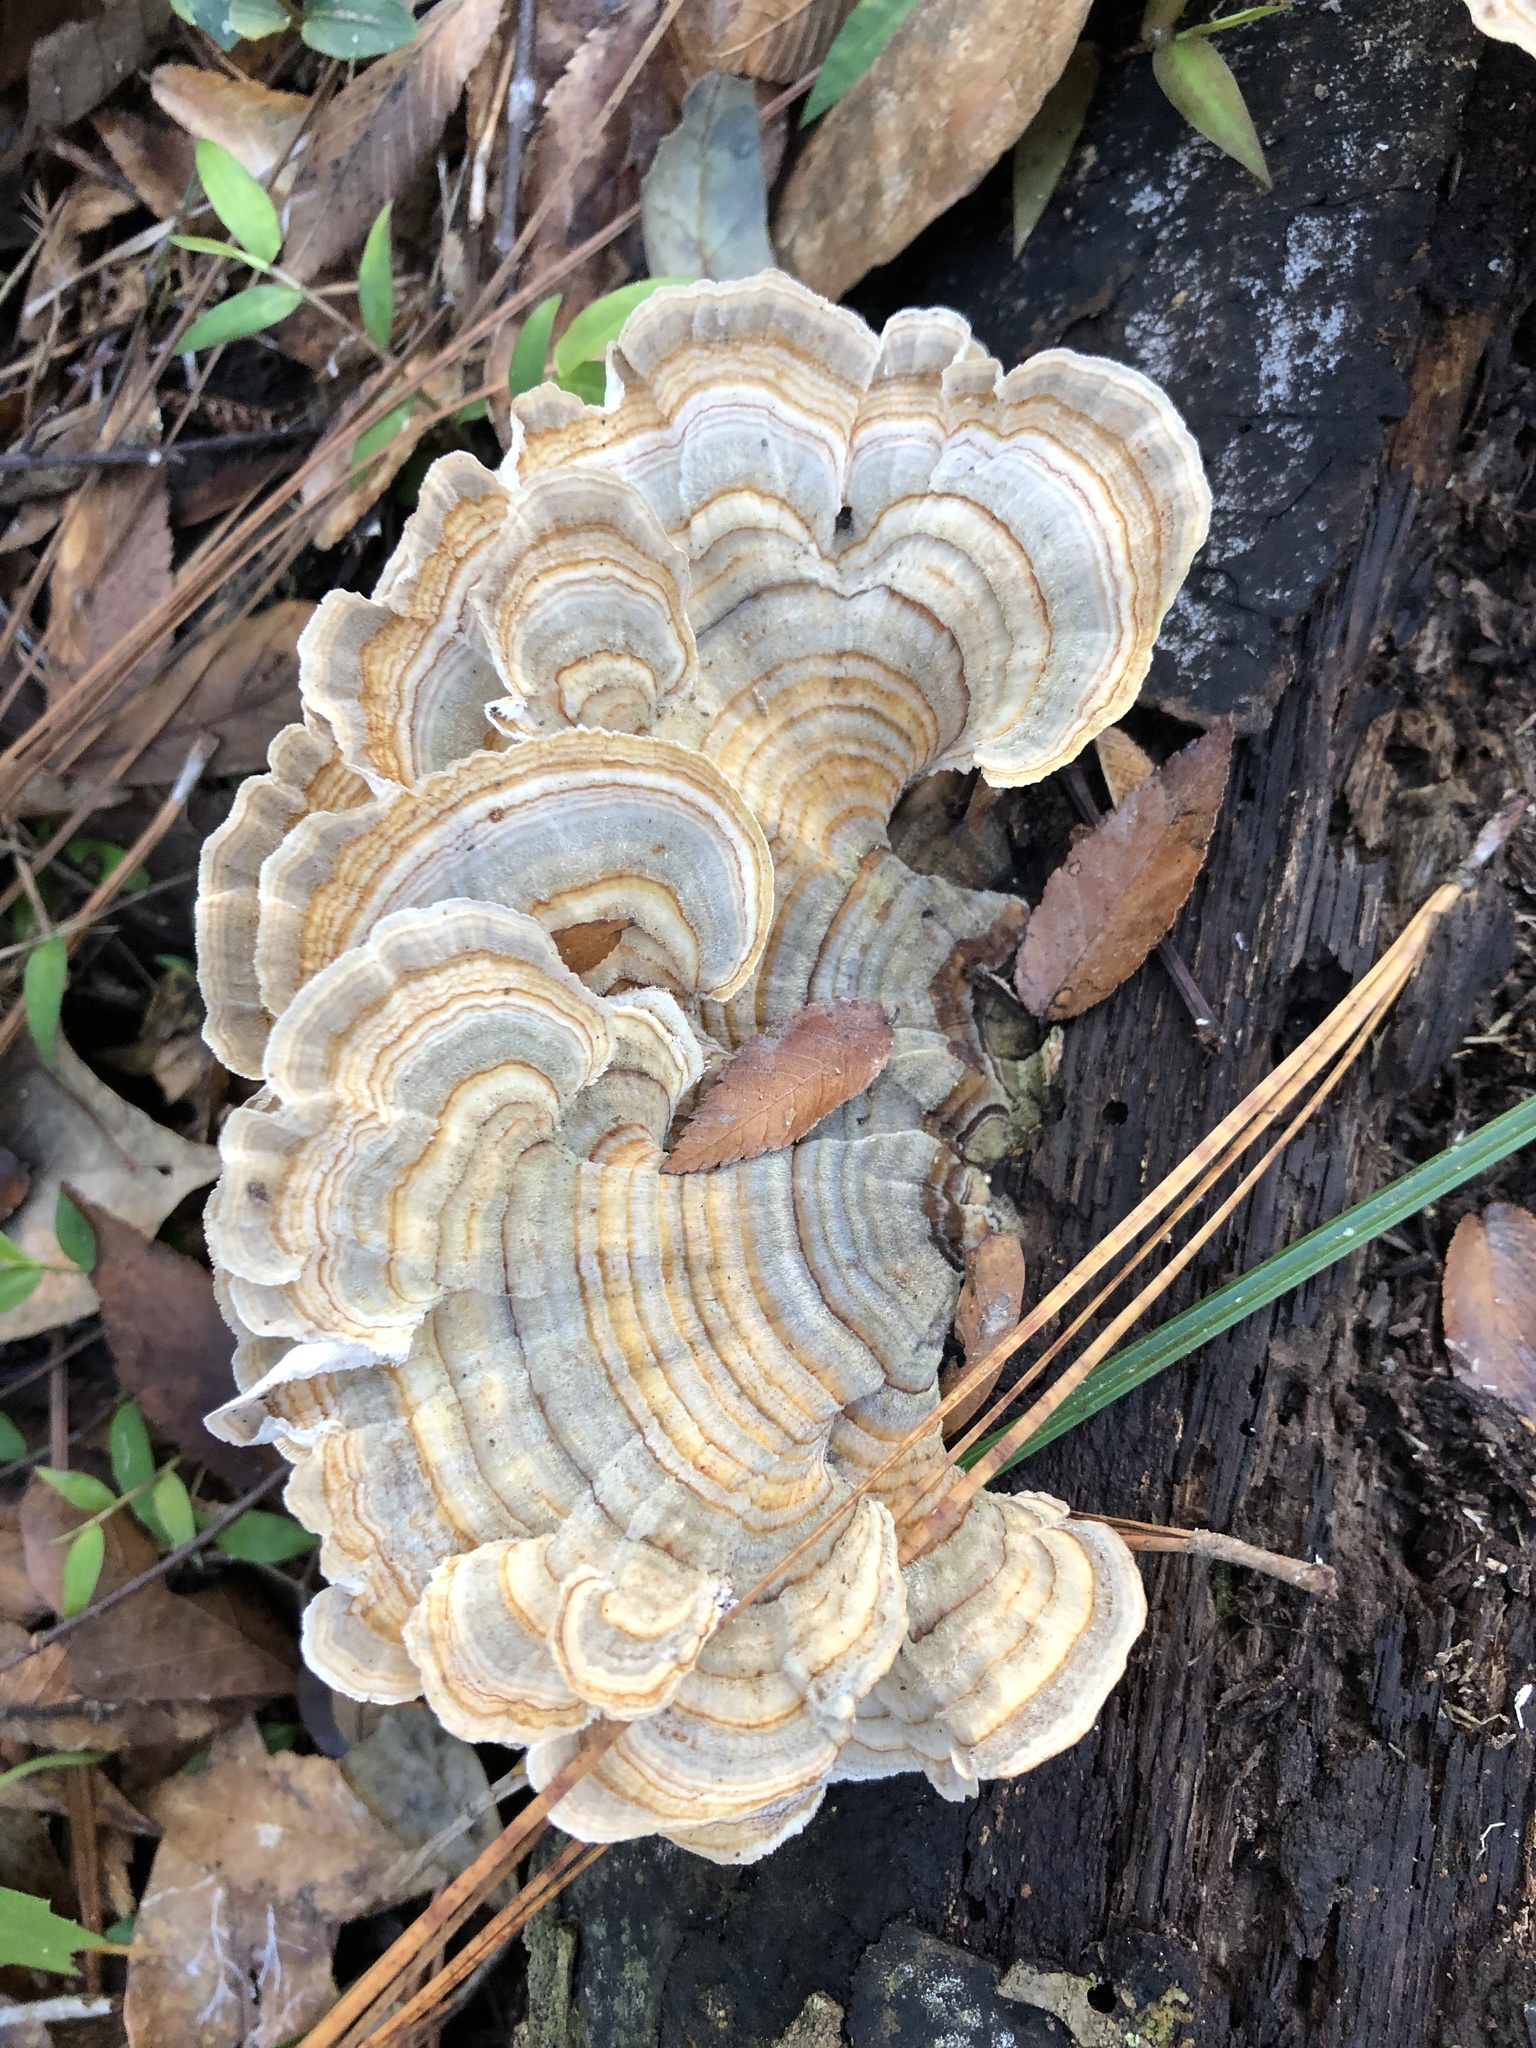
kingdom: Fungi
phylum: Basidiomycota
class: Agaricomycetes
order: Polyporales
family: Polyporaceae
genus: Trametes
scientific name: Trametes versicolor
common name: Turkeytail
